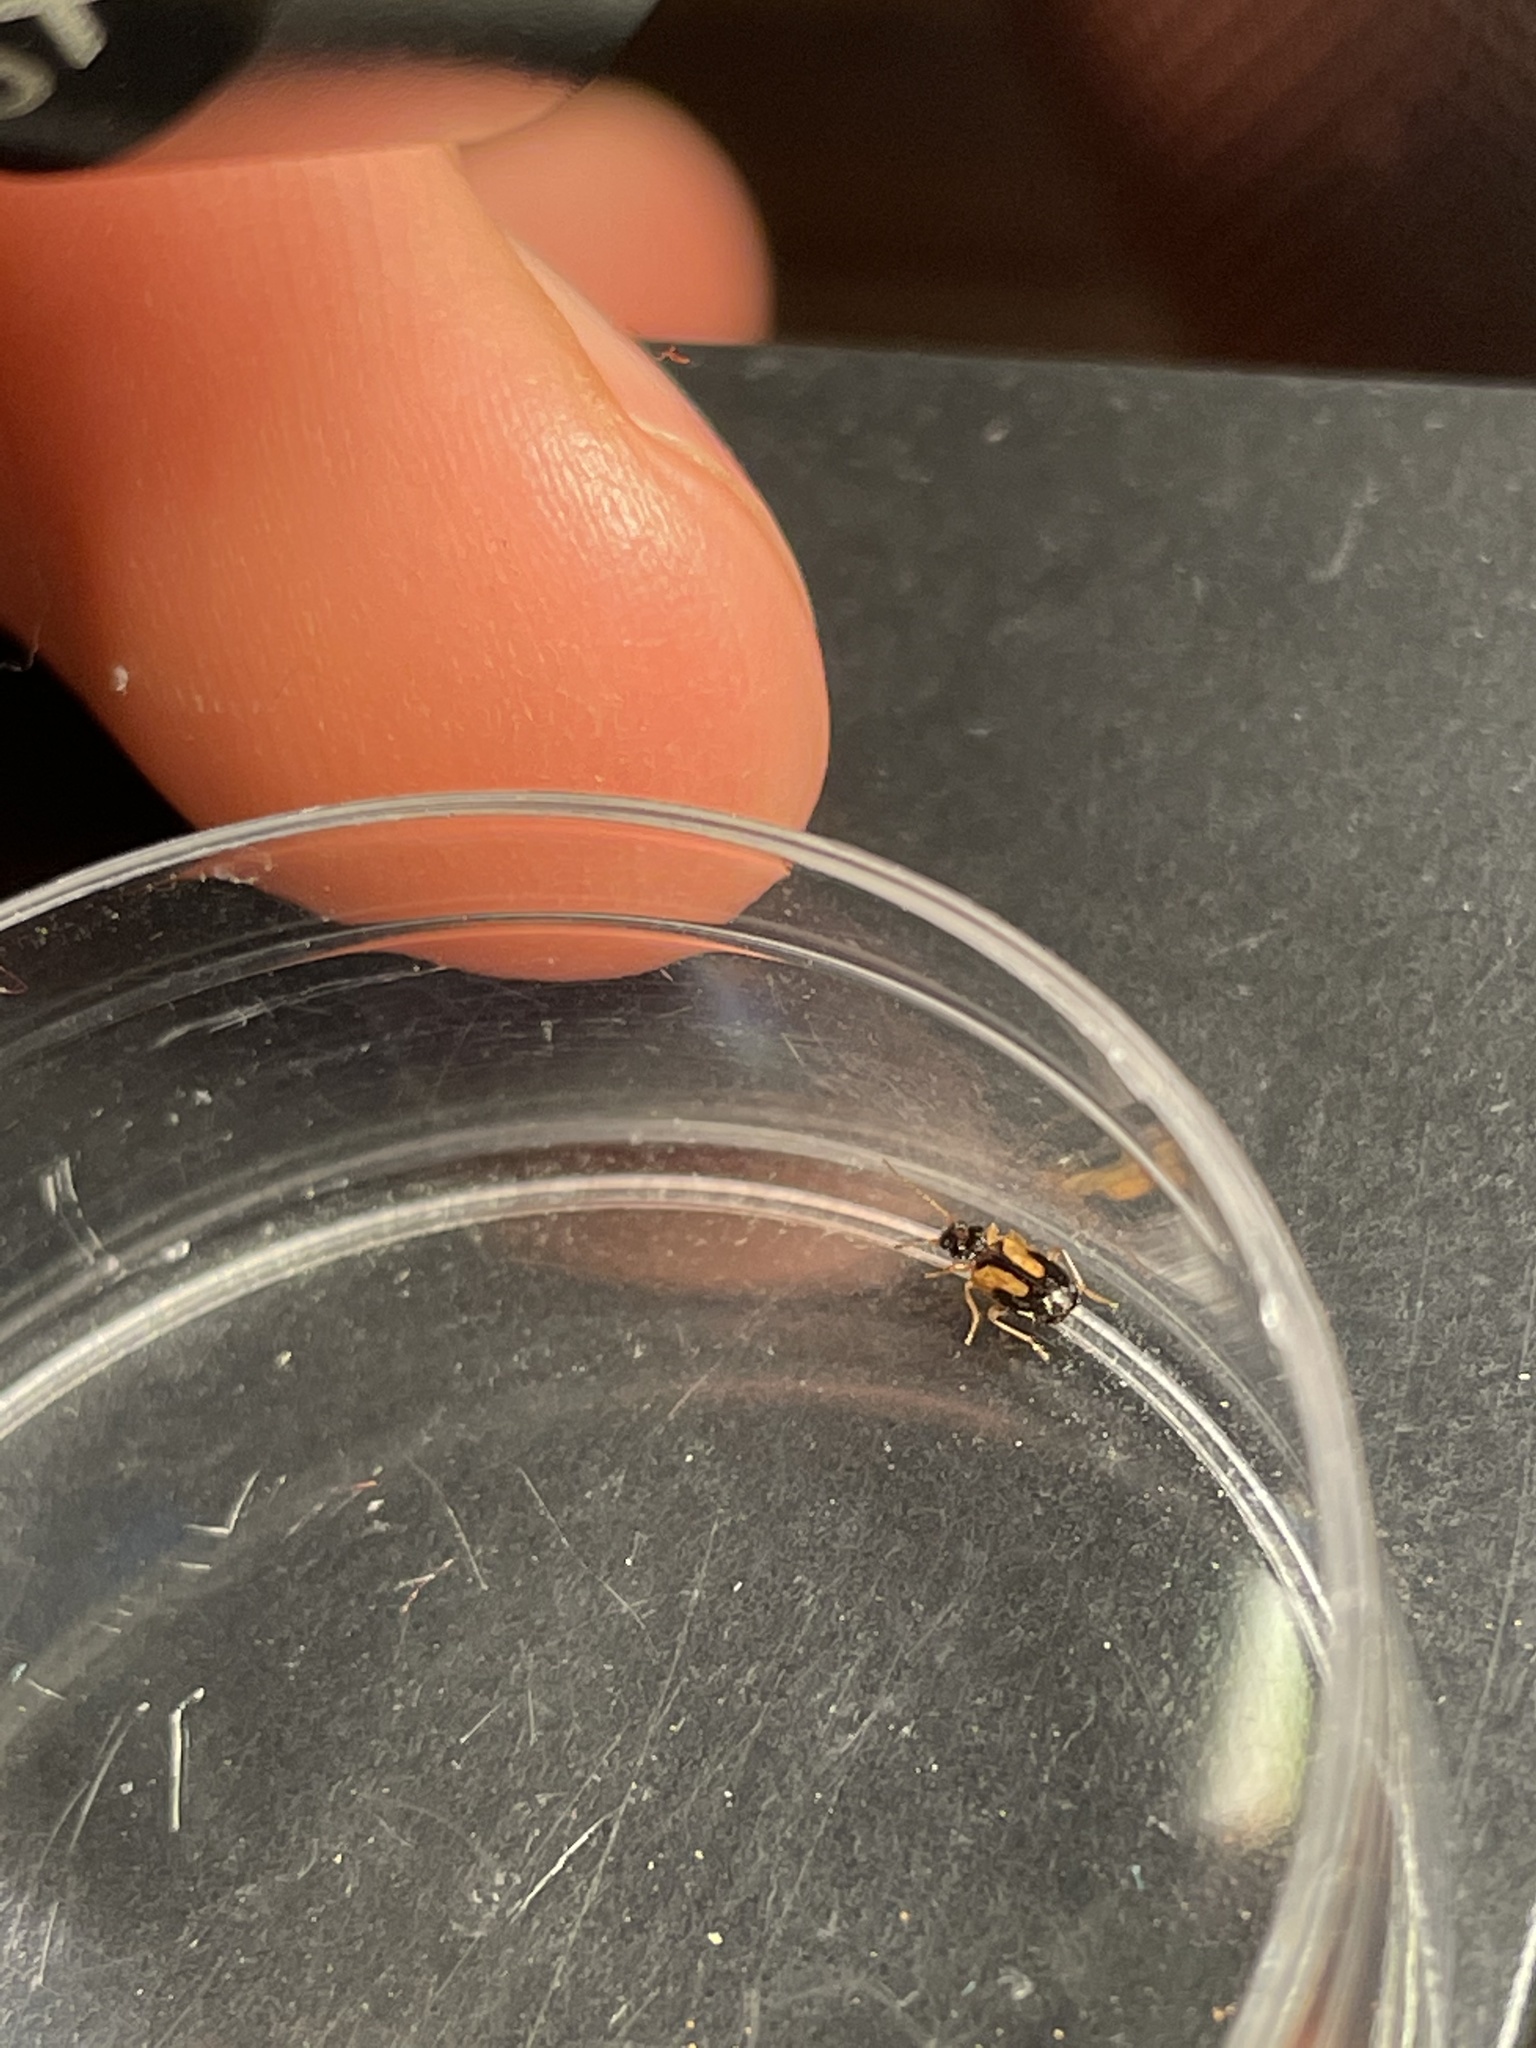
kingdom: Animalia
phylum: Arthropoda
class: Insecta
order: Coleoptera
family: Carabidae
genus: Axinopalpus
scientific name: Axinopalpus biplagiatus
